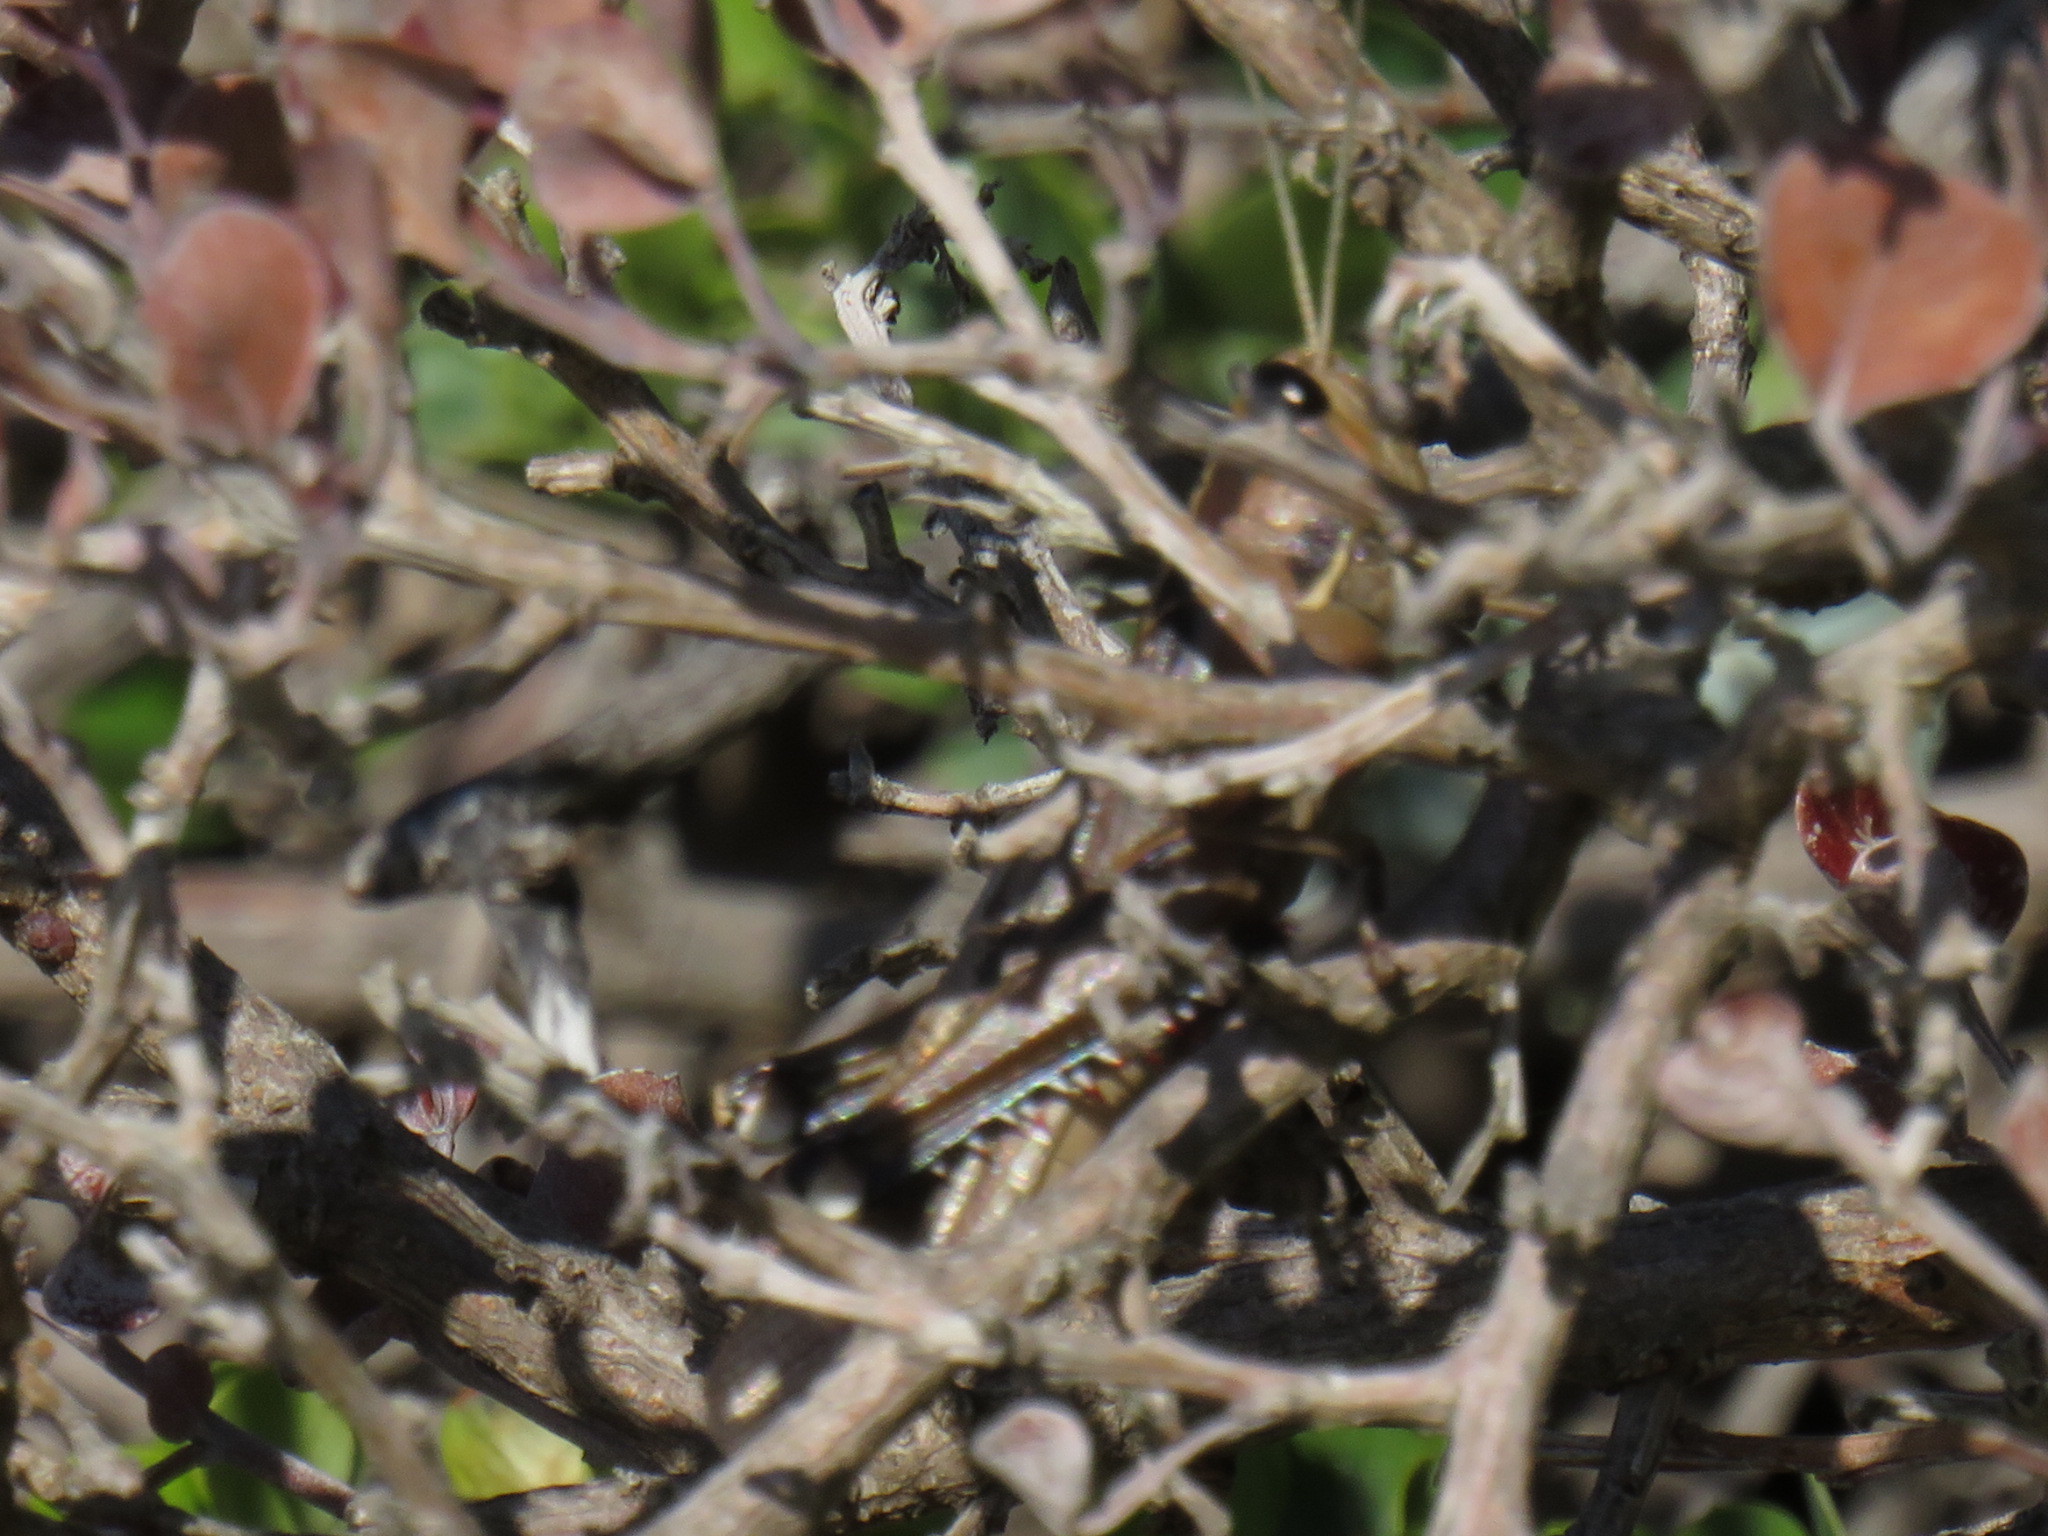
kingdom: Animalia
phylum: Arthropoda
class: Insecta
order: Orthoptera
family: Acrididae
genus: Acanthacris
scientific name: Acanthacris ruficornis
